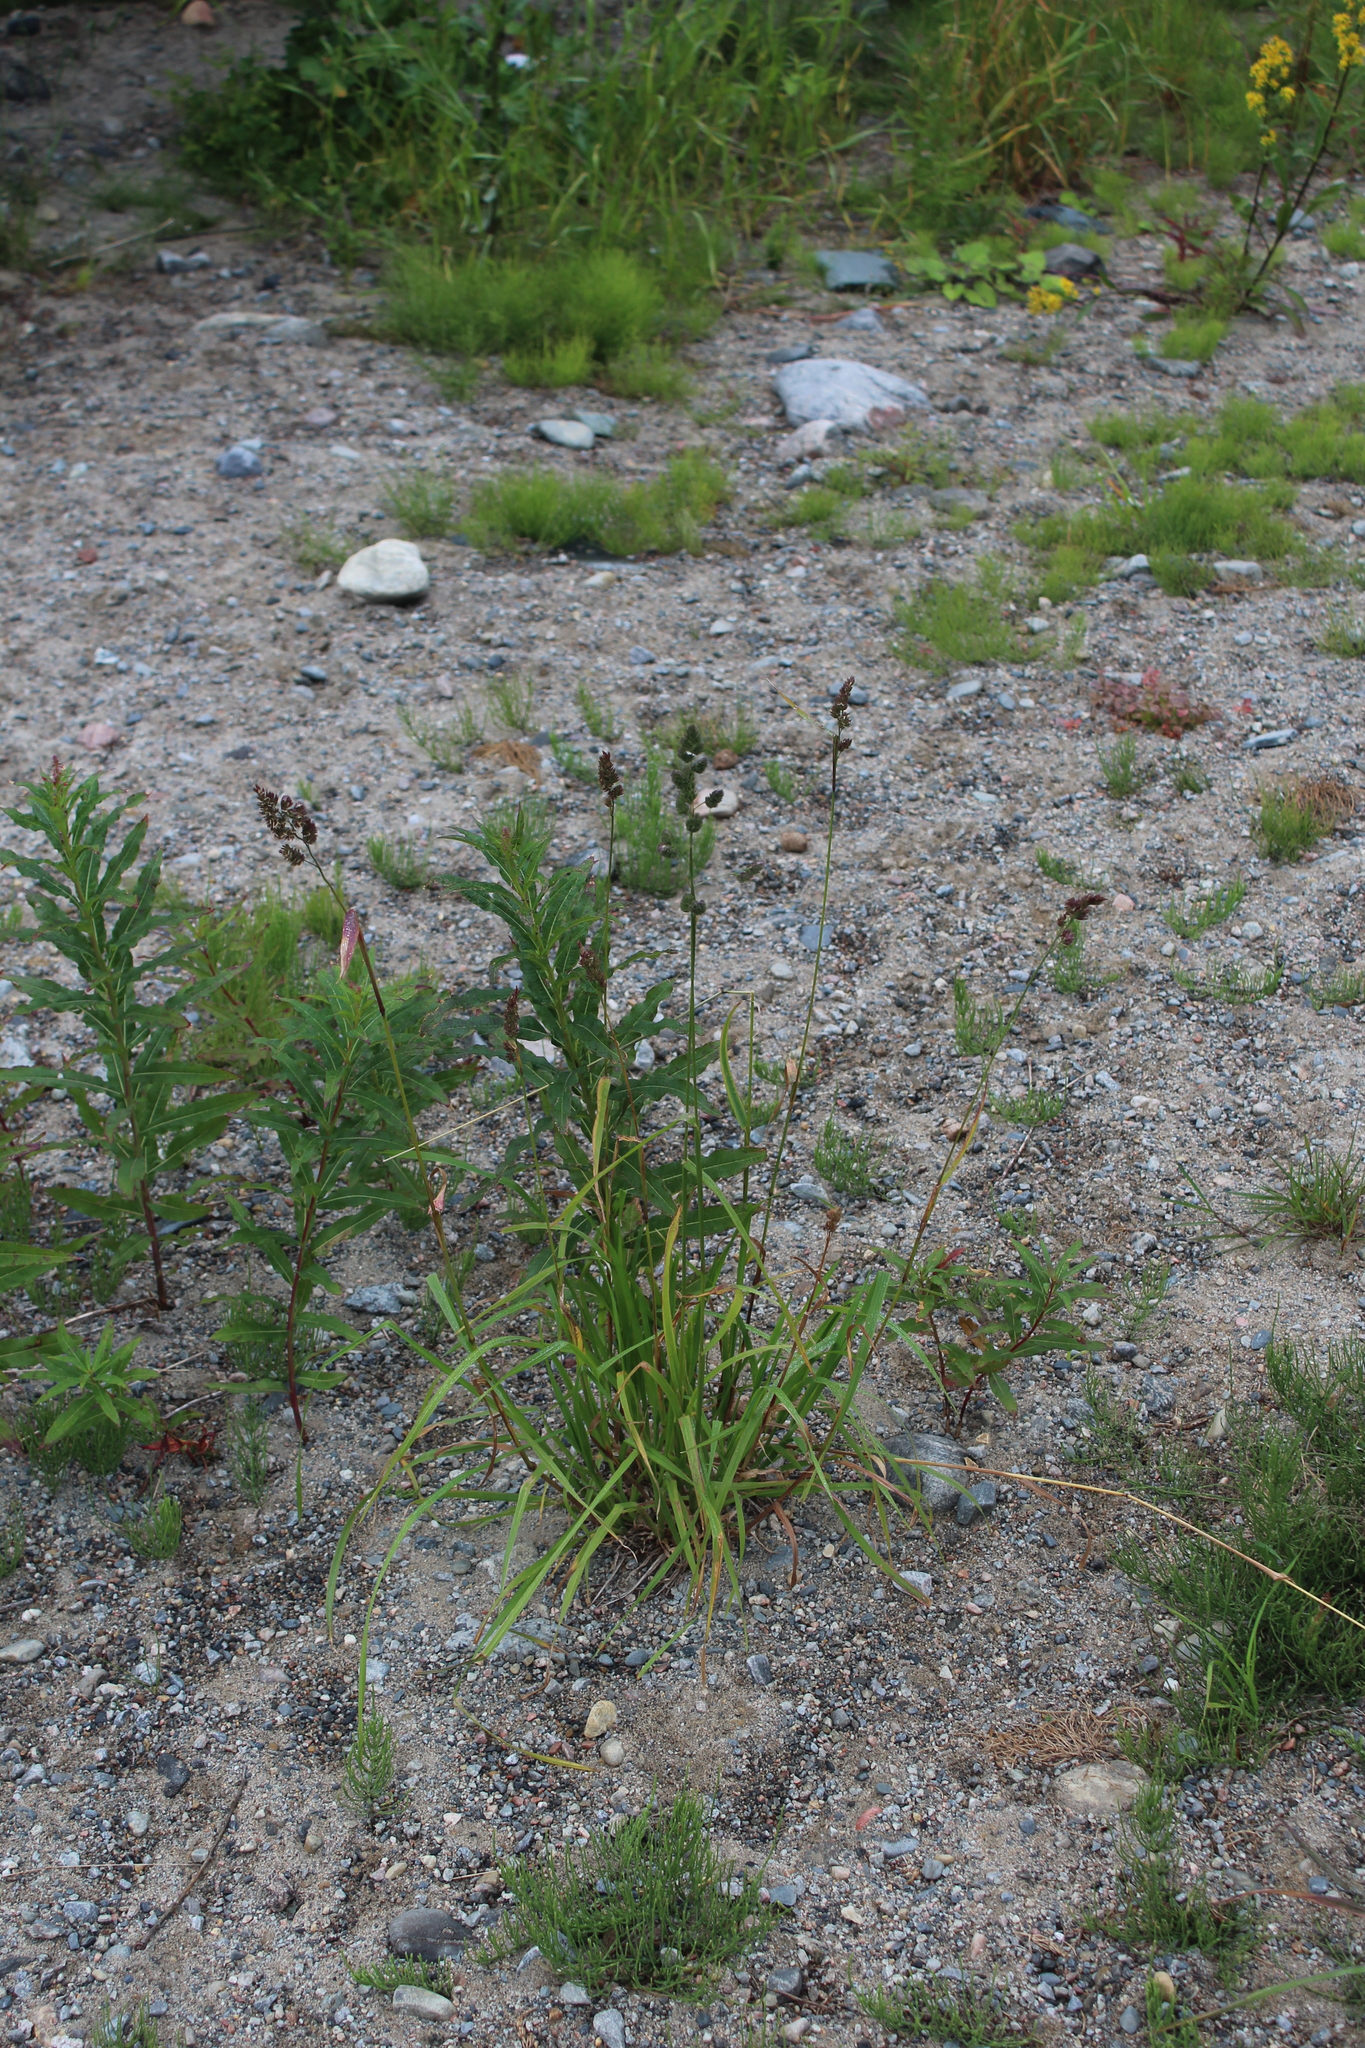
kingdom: Plantae
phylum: Tracheophyta
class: Liliopsida
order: Poales
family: Poaceae
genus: Dactylis
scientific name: Dactylis glomerata
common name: Orchardgrass
